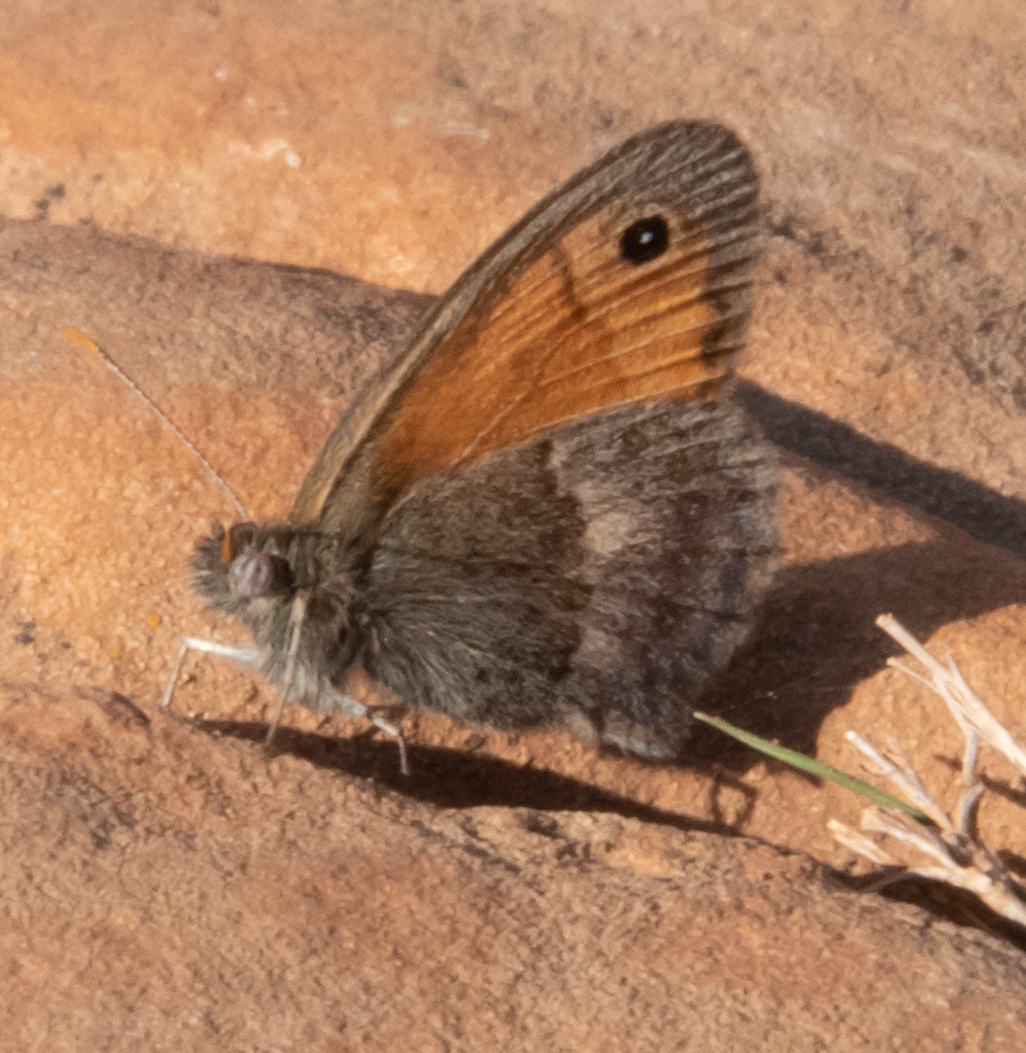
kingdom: Animalia
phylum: Arthropoda
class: Insecta
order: Lepidoptera
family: Nymphalidae
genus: Coenonympha
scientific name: Coenonympha pamphilus
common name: Small heath
